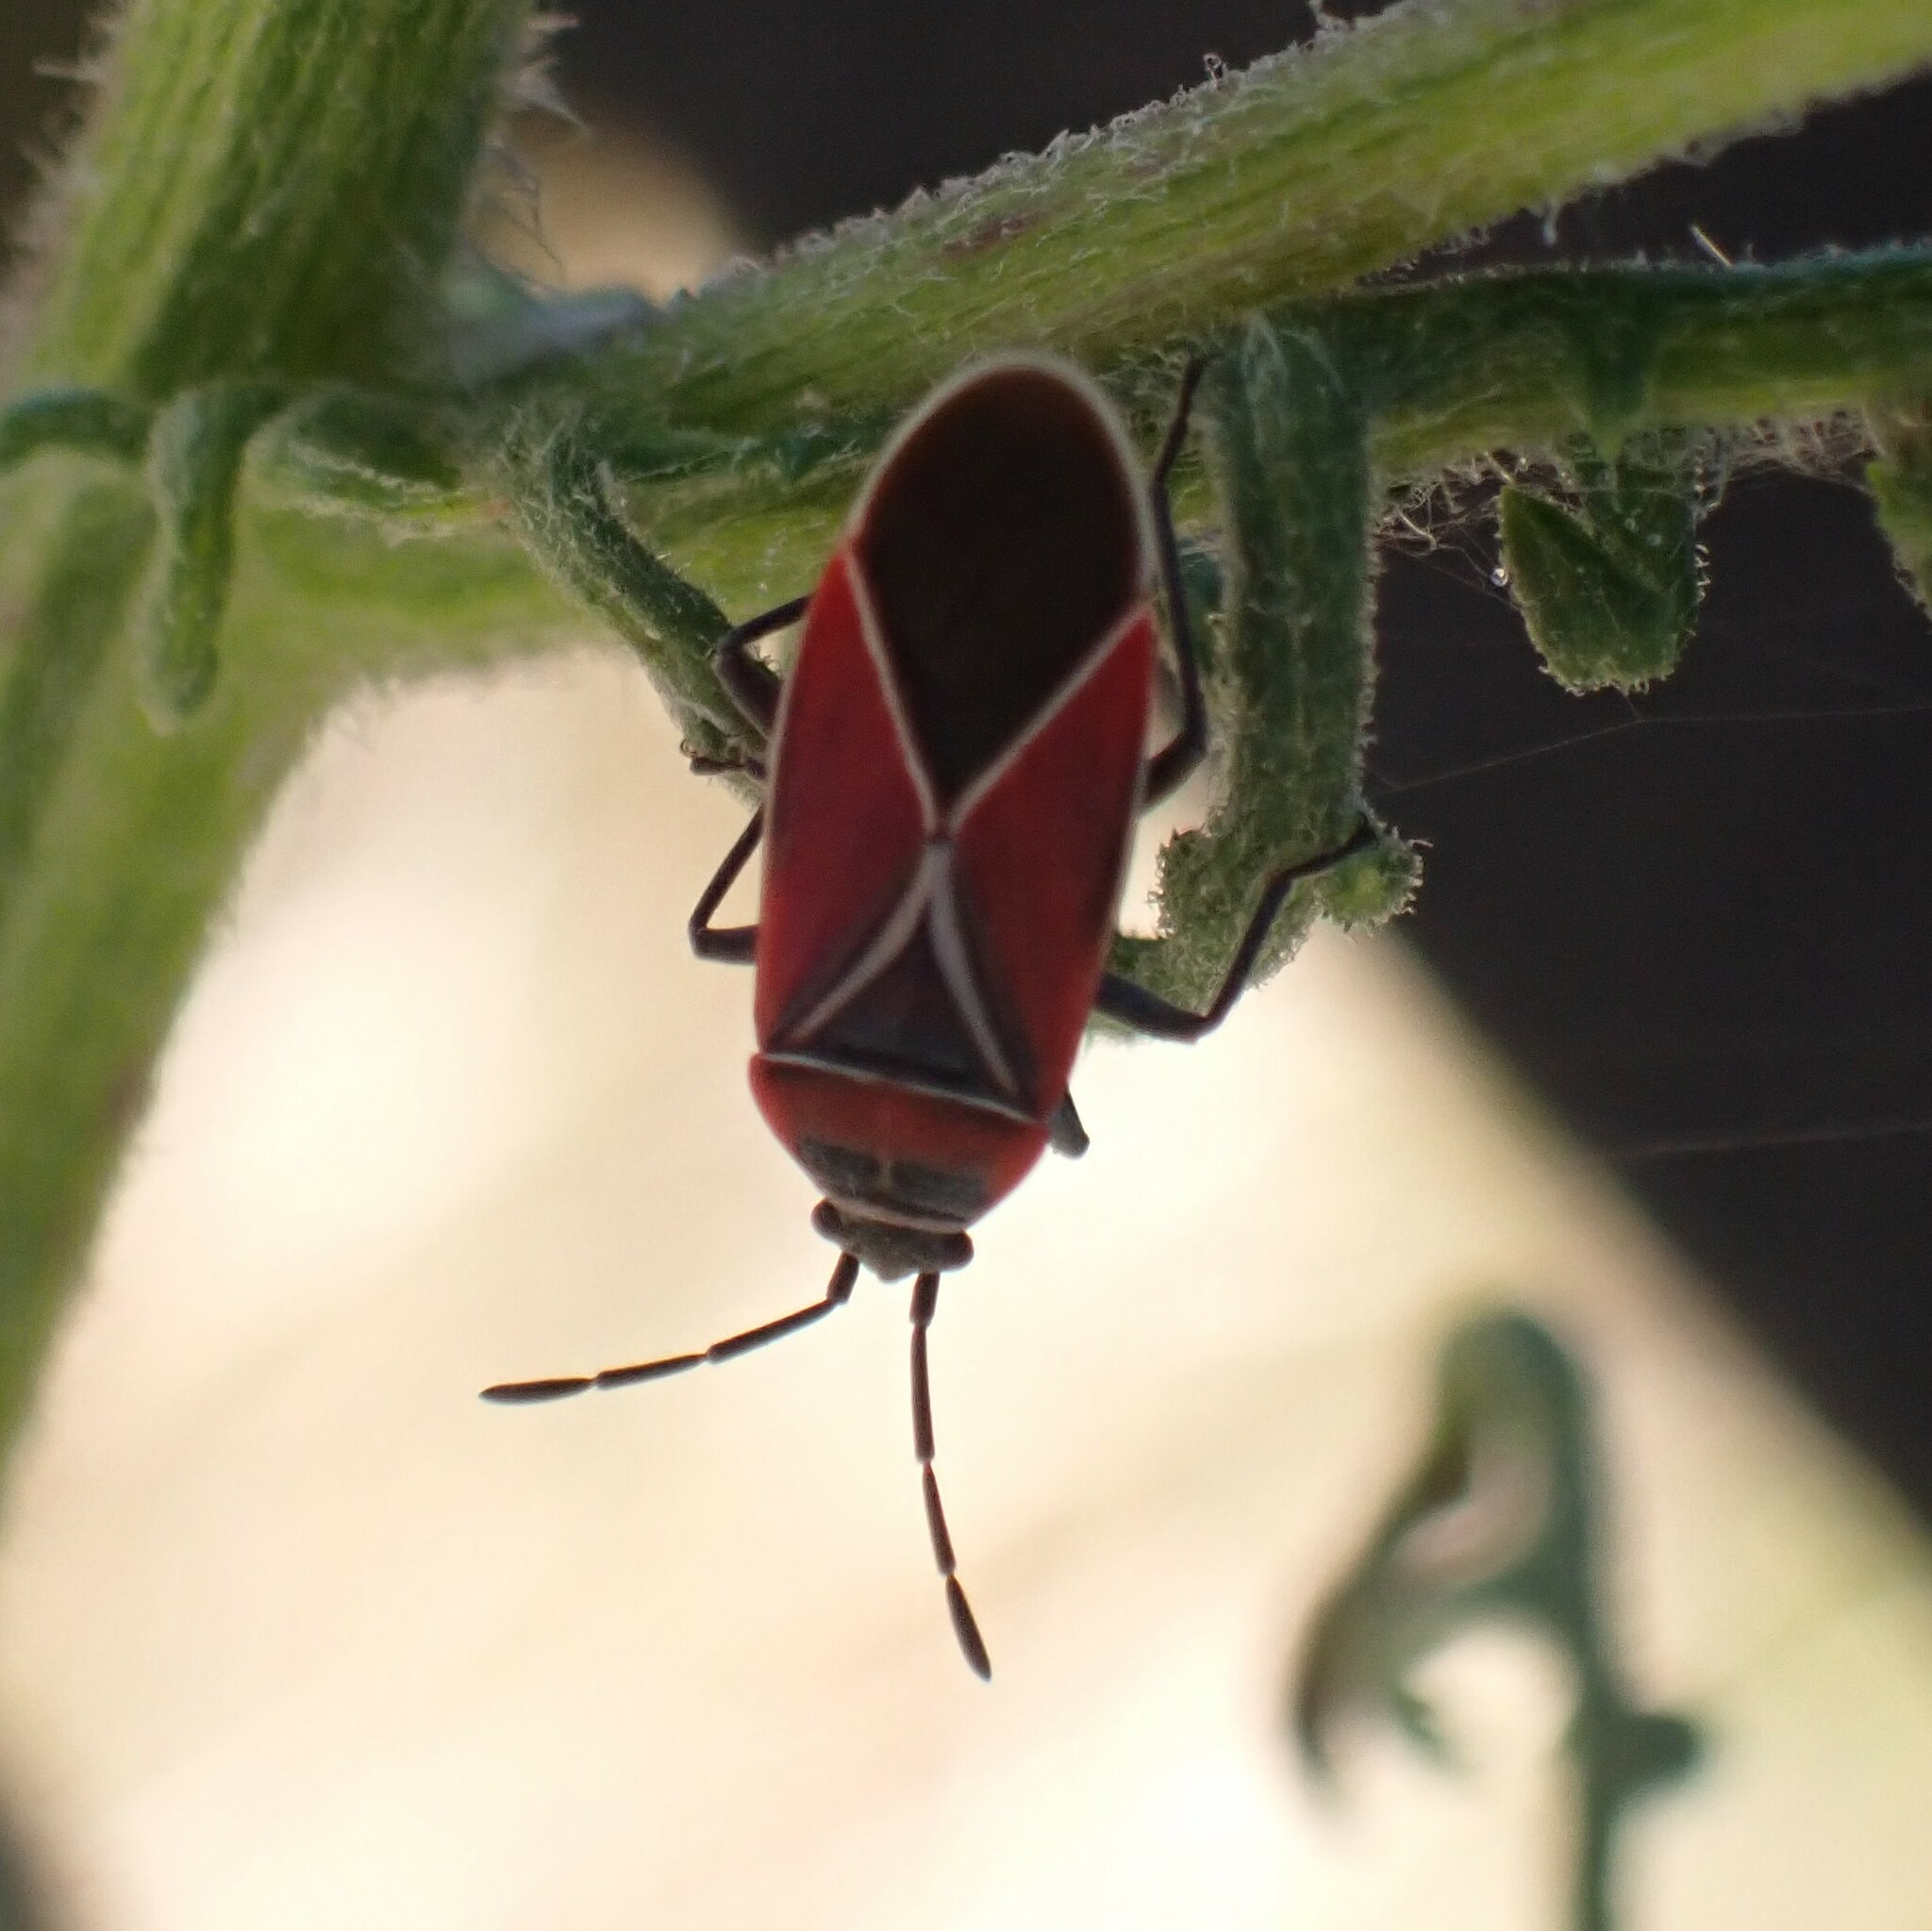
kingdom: Animalia
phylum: Arthropoda
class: Insecta
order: Hemiptera
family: Lygaeidae
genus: Neacoryphus
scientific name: Neacoryphus bicrucis
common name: Lygaeid bug
